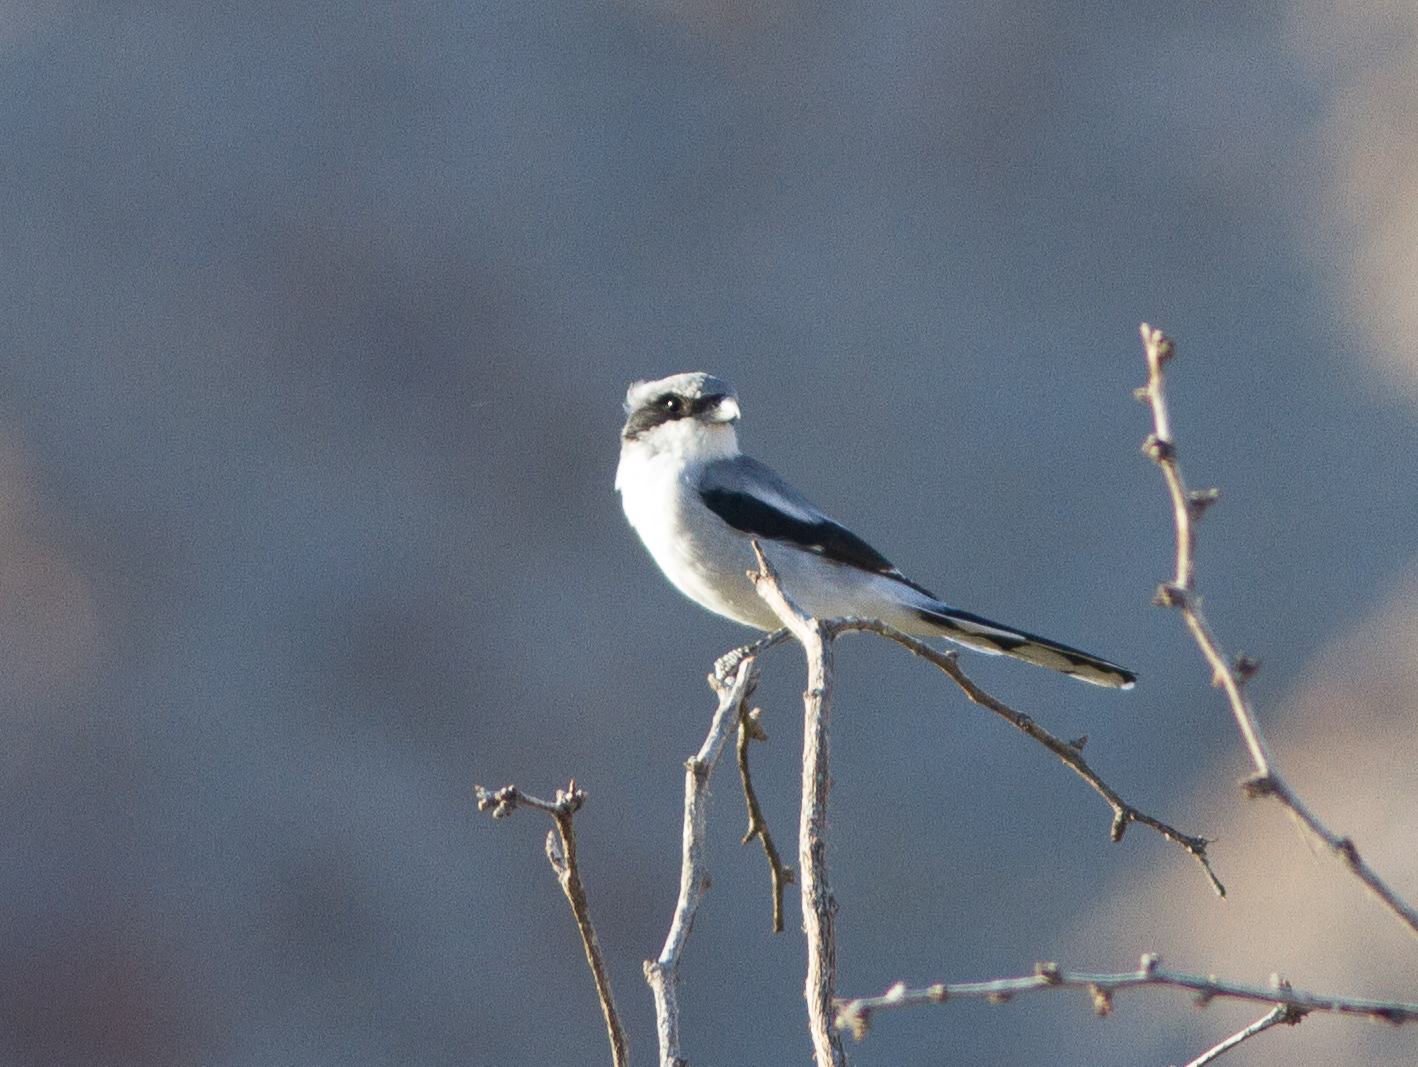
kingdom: Animalia
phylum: Chordata
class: Aves
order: Passeriformes
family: Laniidae
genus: Lanius
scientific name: Lanius ludovicianus
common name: Loggerhead shrike
